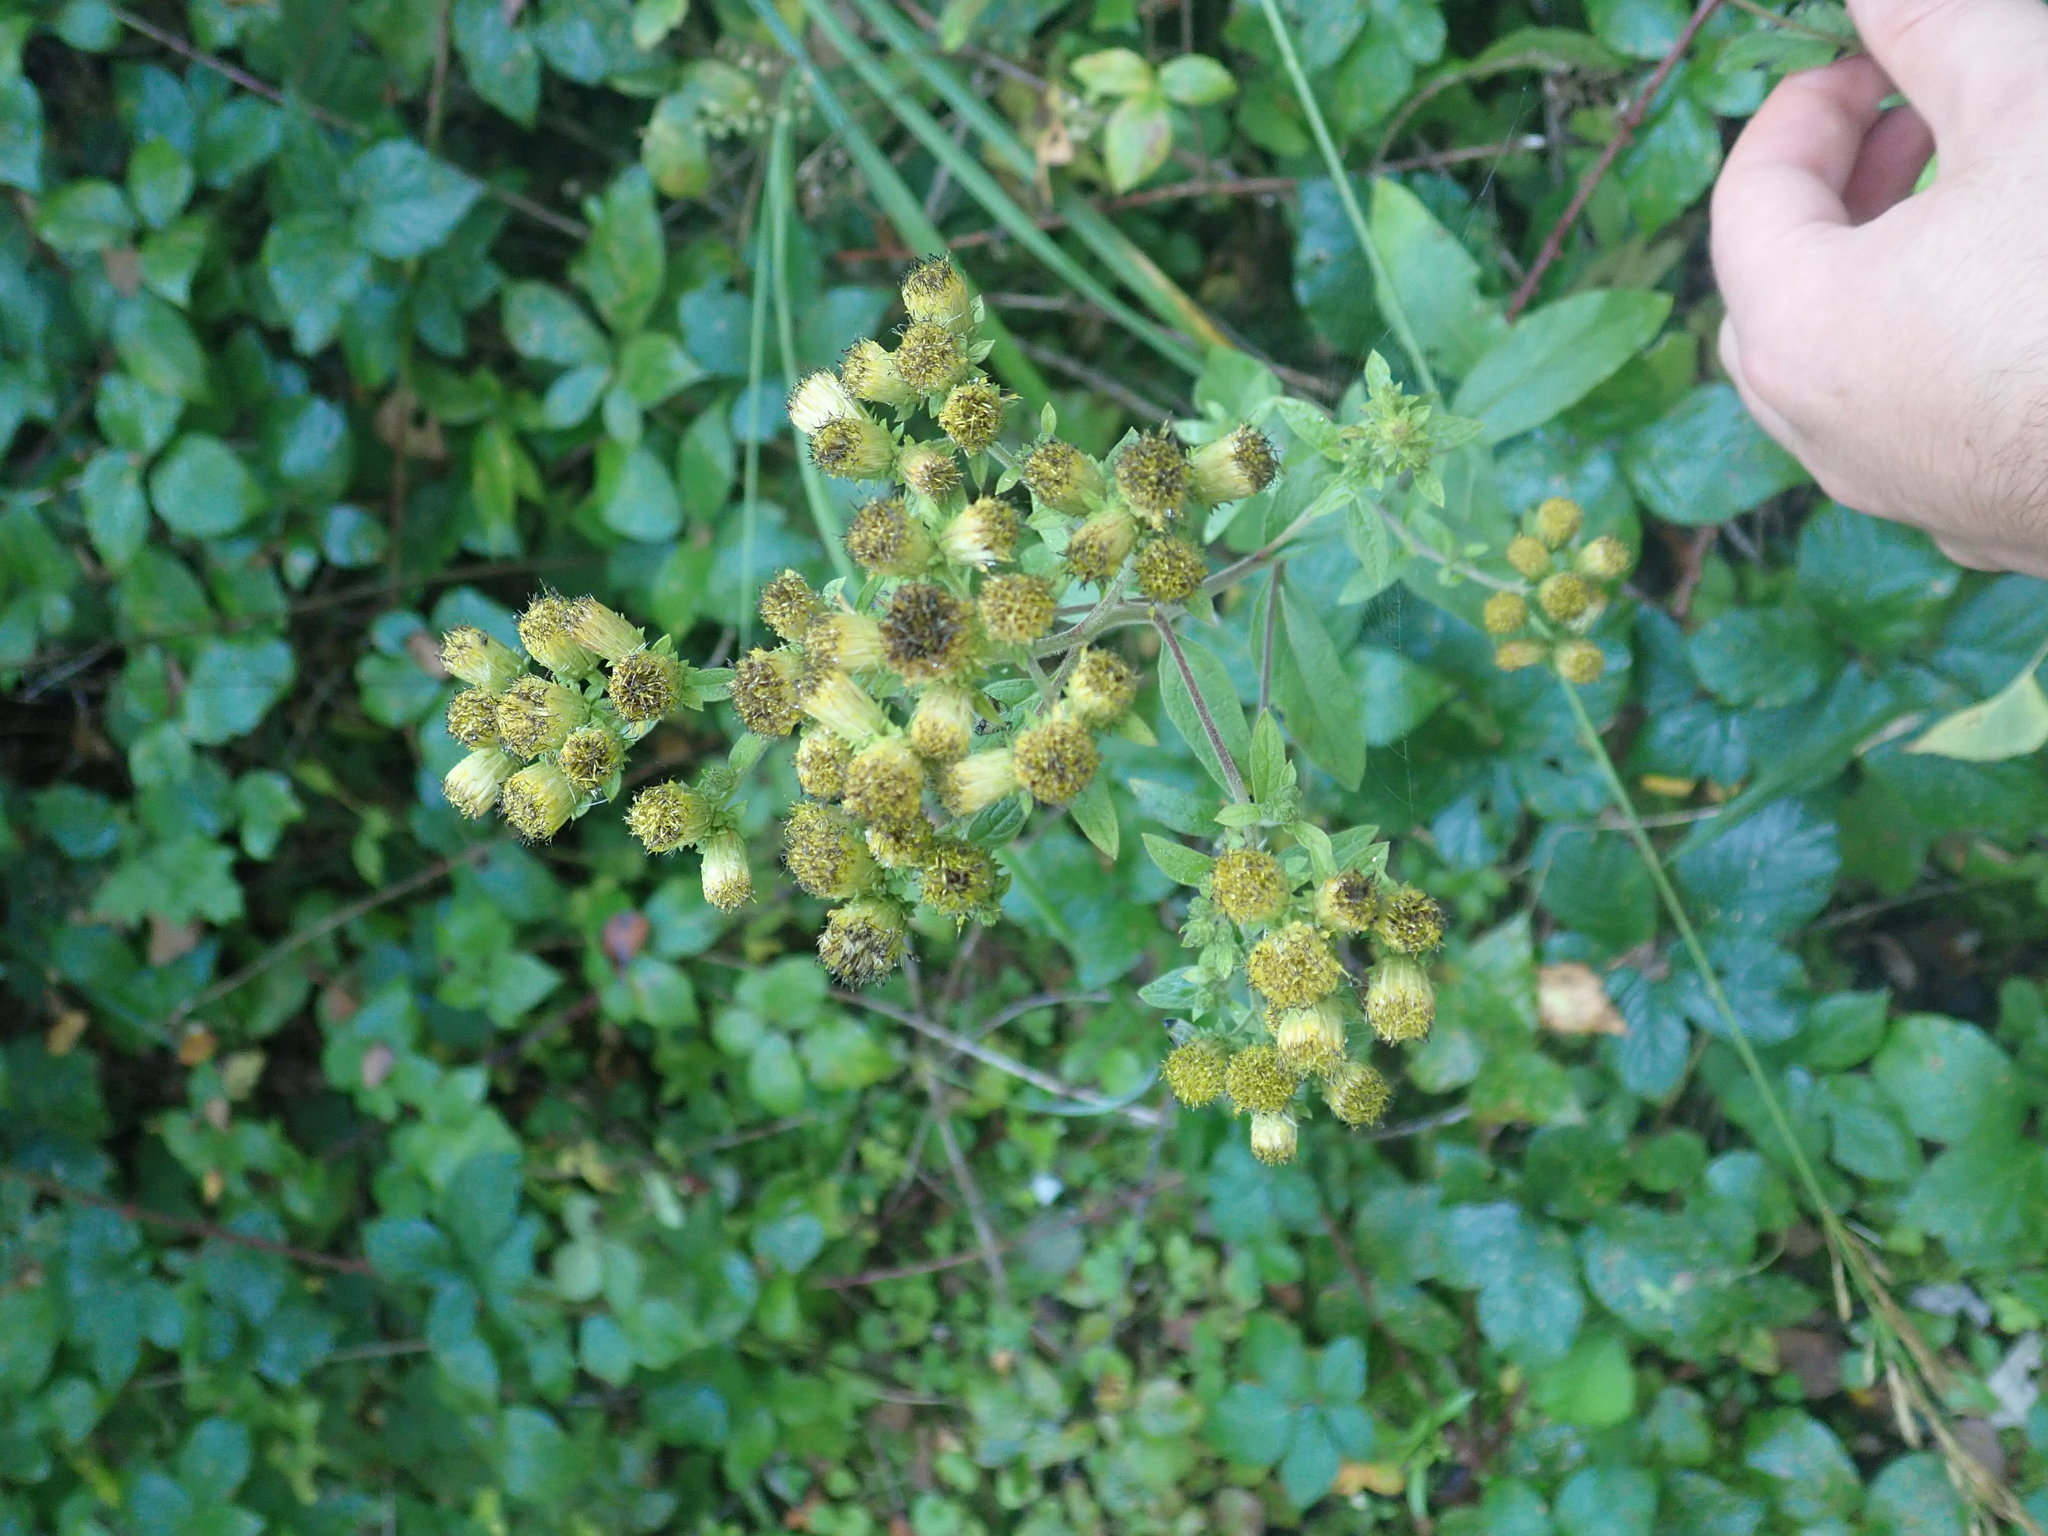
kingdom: Plantae
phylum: Tracheophyta
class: Magnoliopsida
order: Asterales
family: Asteraceae
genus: Pentanema
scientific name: Pentanema squarrosum
